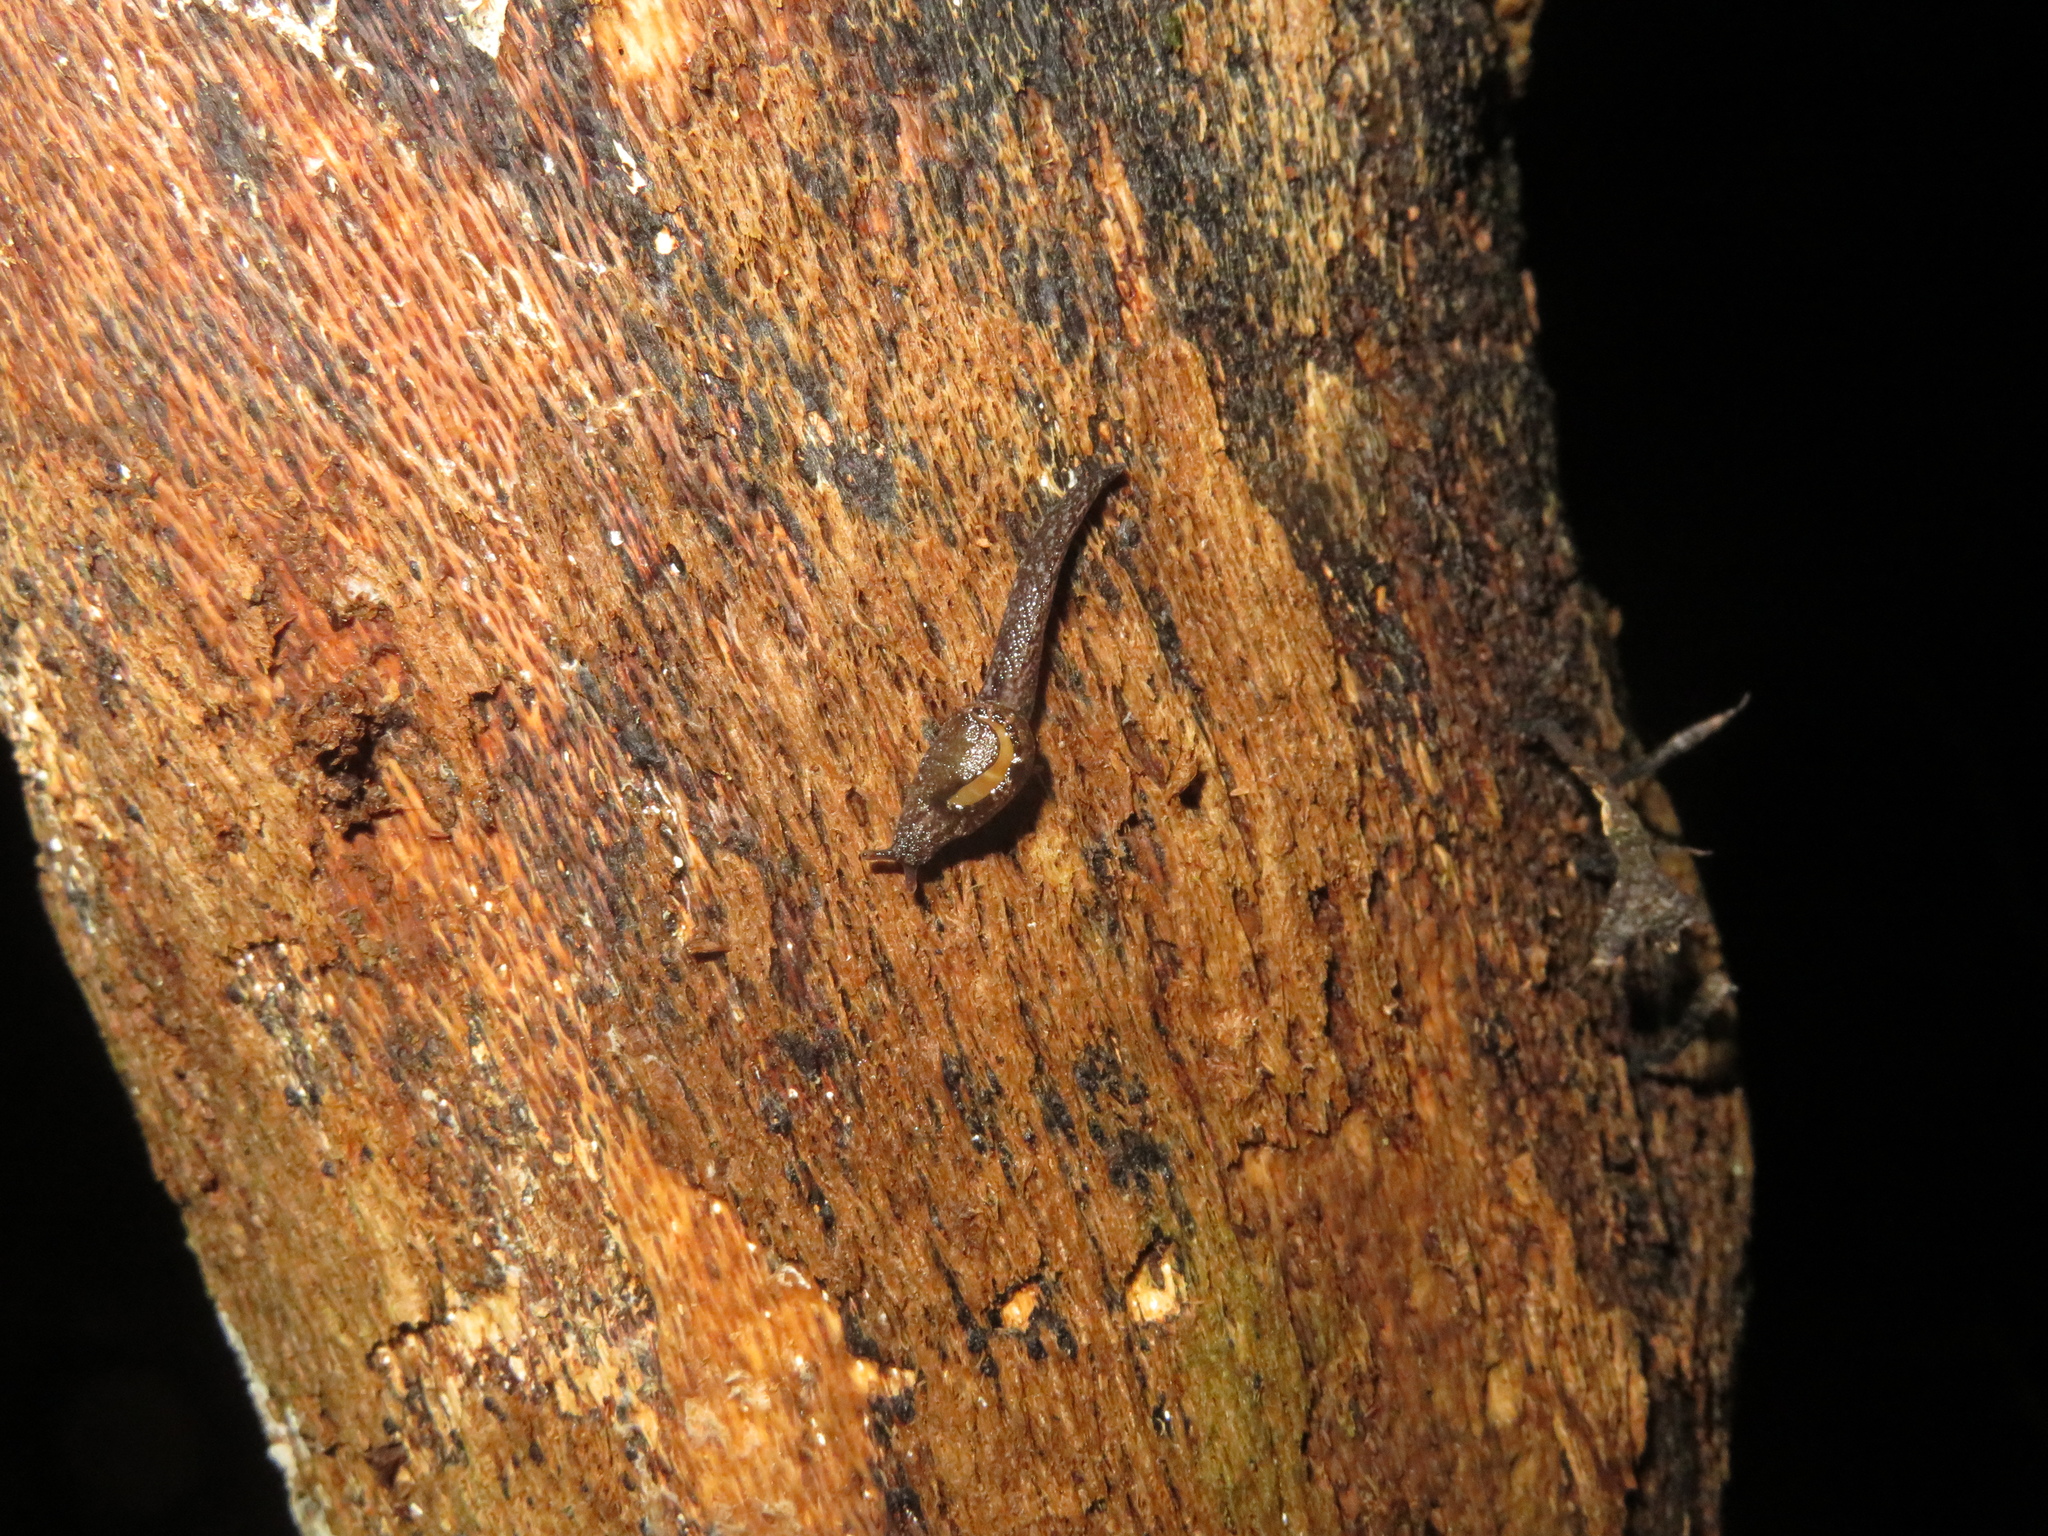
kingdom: Animalia
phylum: Mollusca
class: Gastropoda
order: Stylommatophora
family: Charopidae
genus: Otoconcha
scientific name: Otoconcha dimidiata
